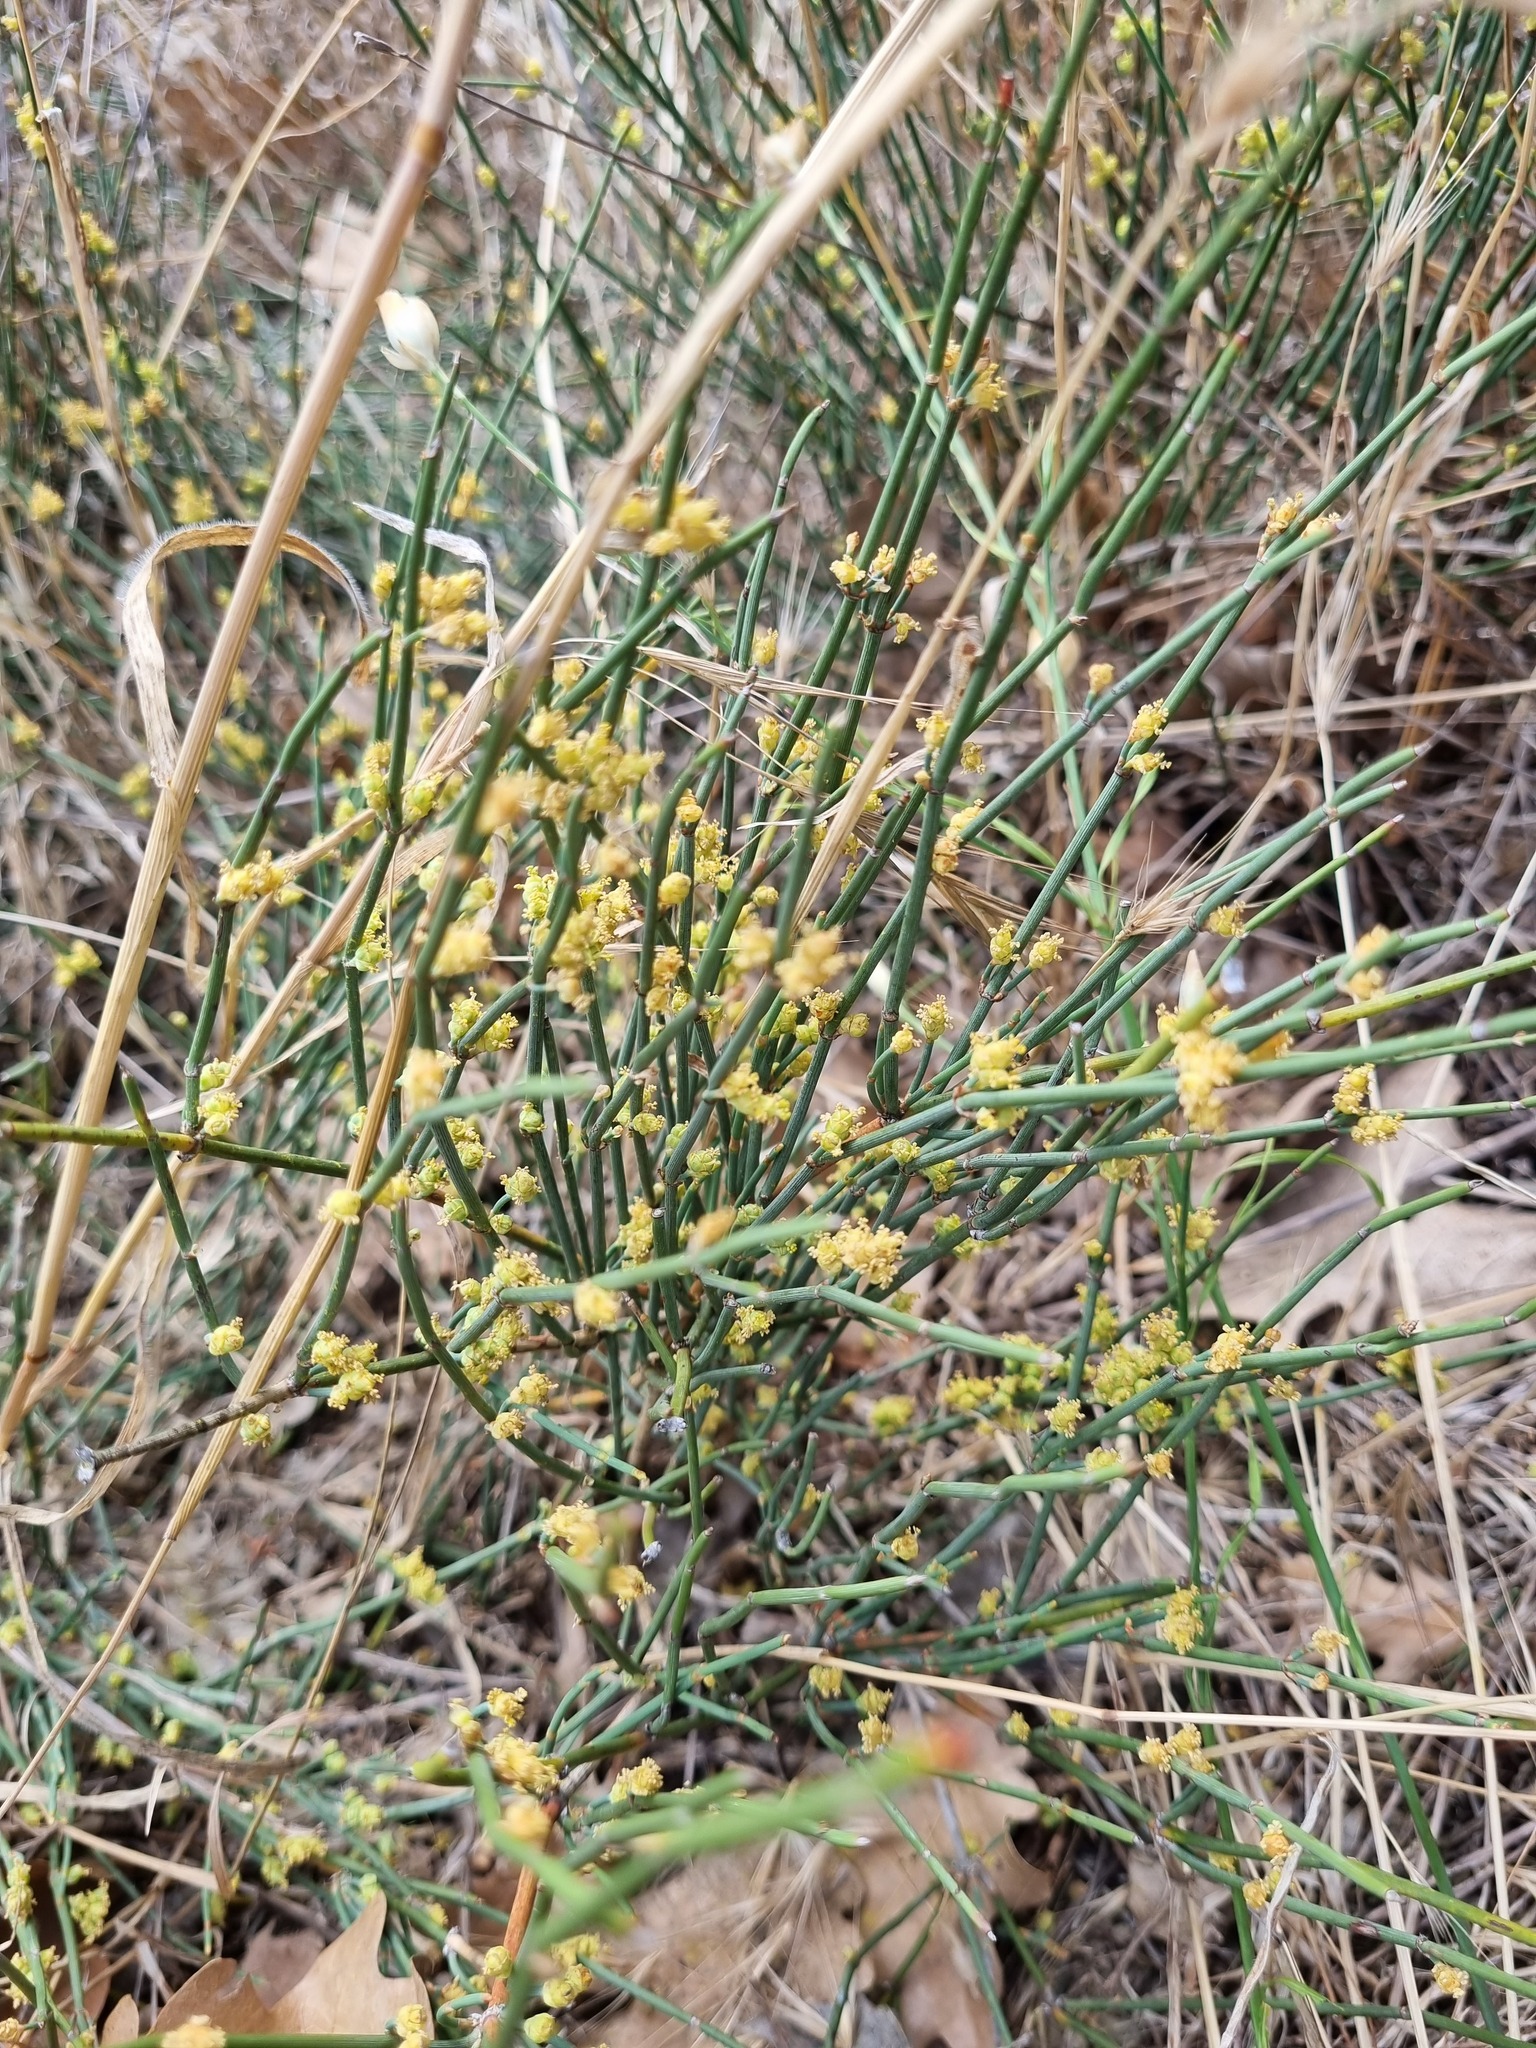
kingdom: Plantae
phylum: Tracheophyta
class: Gnetopsida
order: Ephedrales
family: Ephedraceae
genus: Ephedra
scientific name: Ephedra distachya
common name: Sea grape
